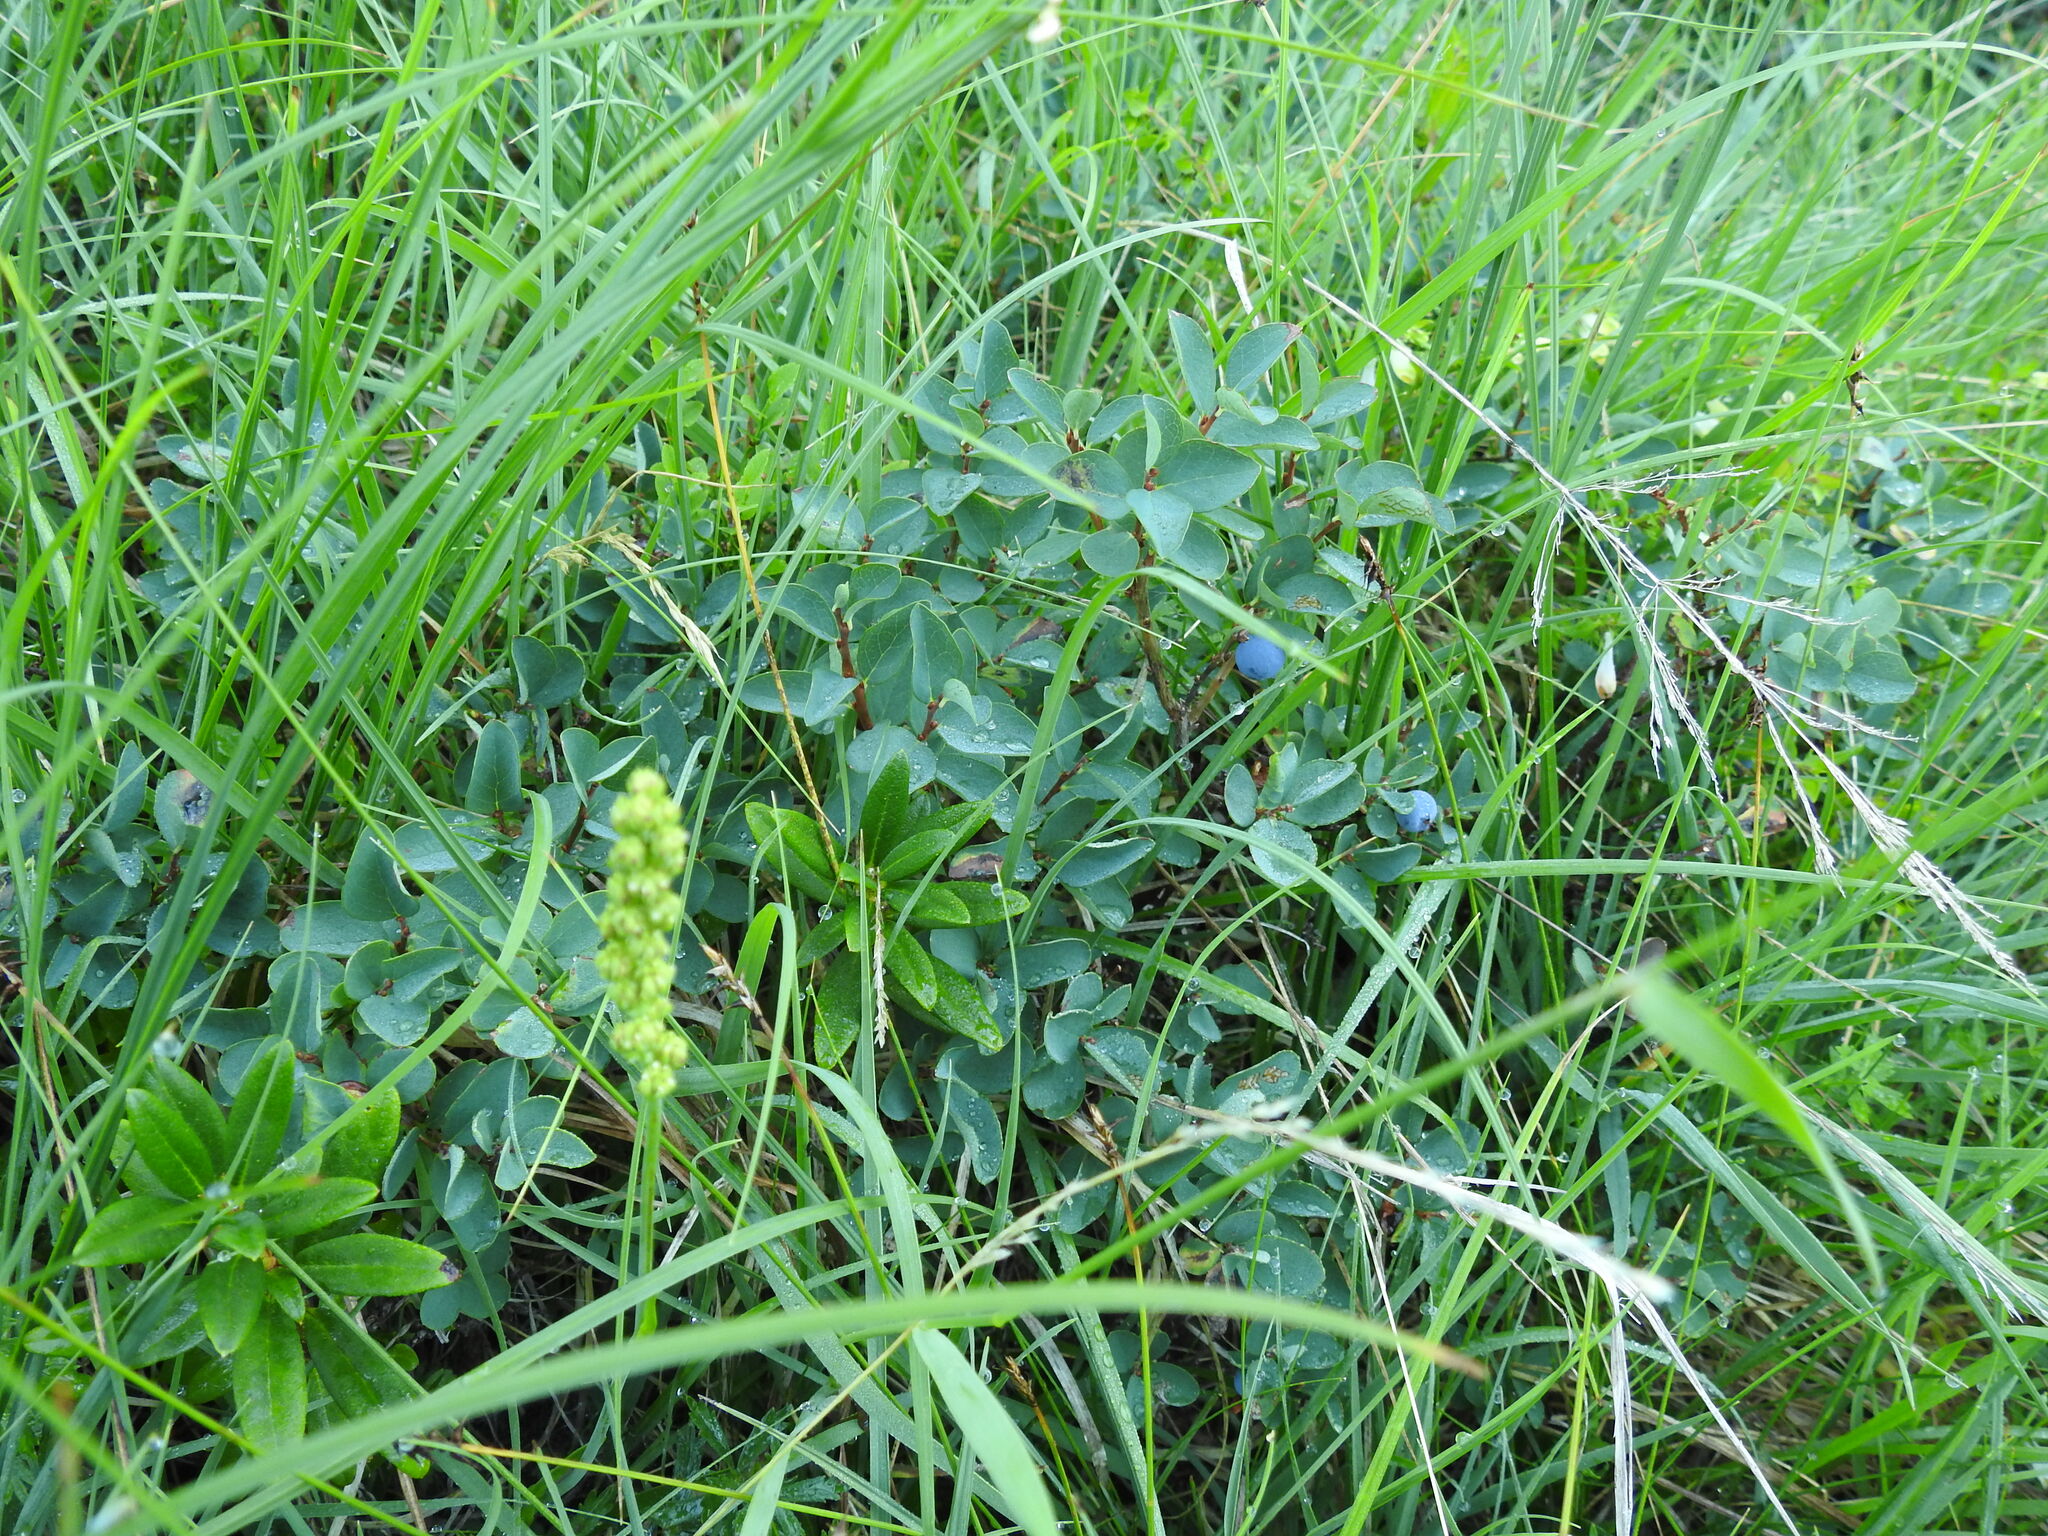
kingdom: Plantae
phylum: Tracheophyta
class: Magnoliopsida
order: Ericales
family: Ericaceae
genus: Vaccinium
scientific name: Vaccinium uliginosum
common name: Bog bilberry
